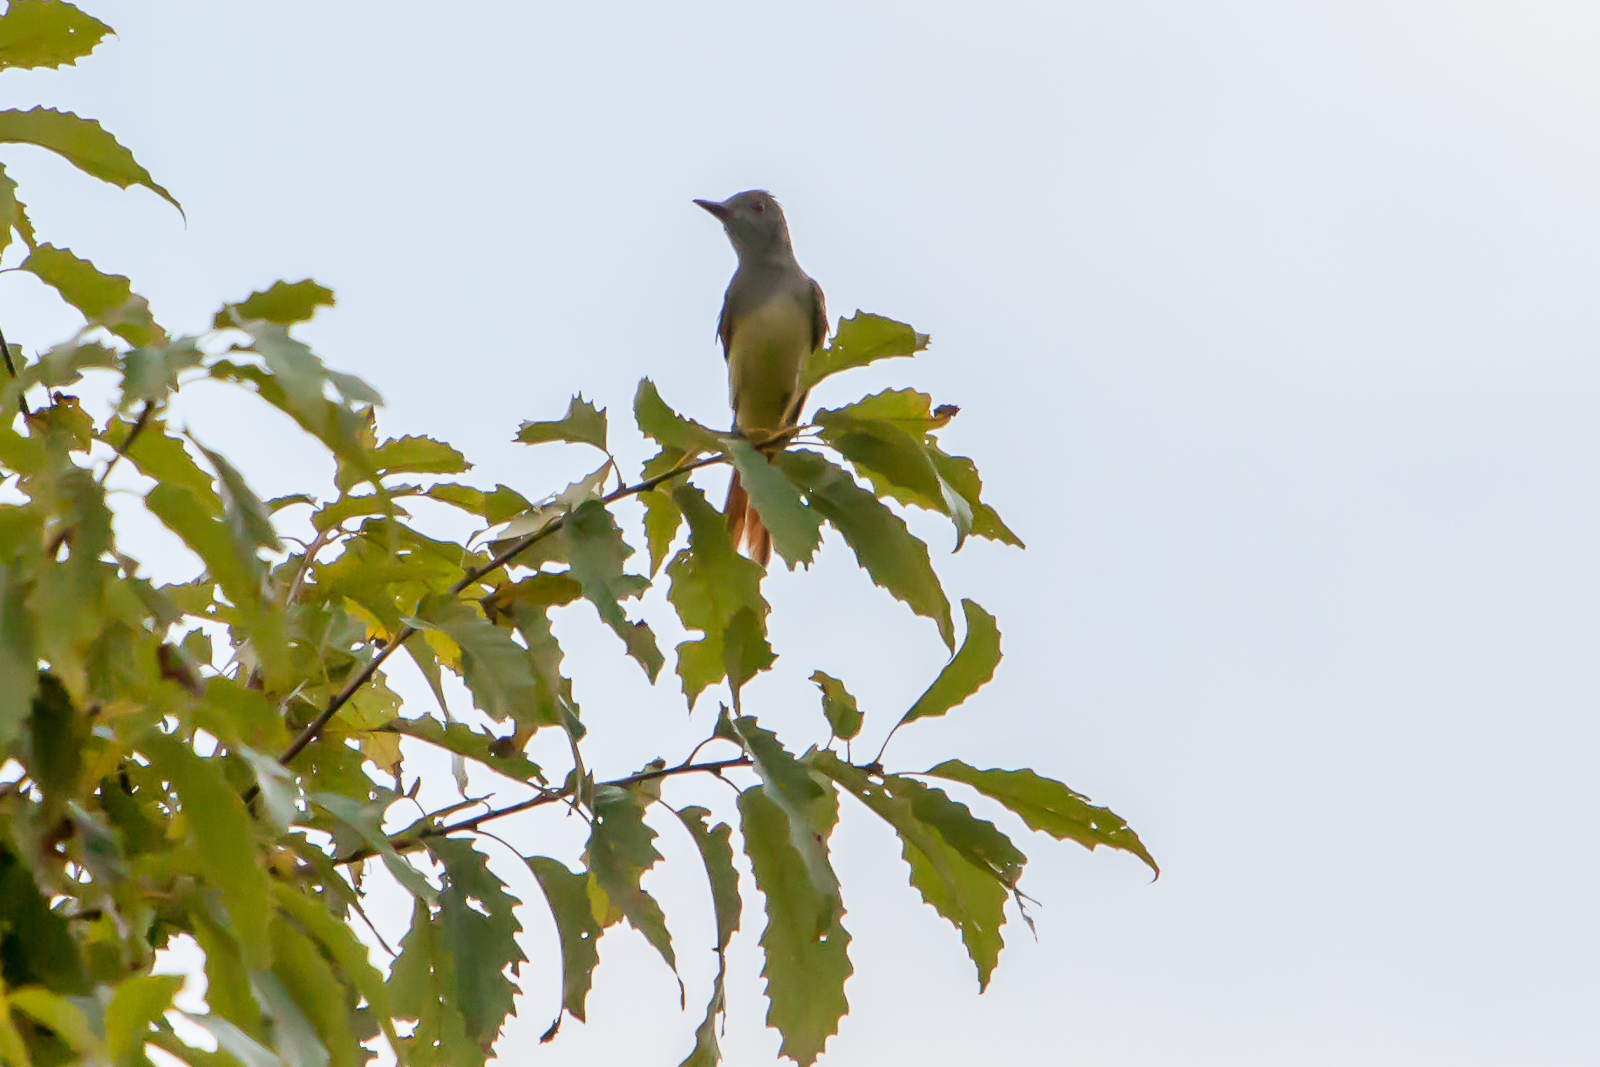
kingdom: Animalia
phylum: Chordata
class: Aves
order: Passeriformes
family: Tyrannidae
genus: Myiarchus
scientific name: Myiarchus crinitus
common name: Great crested flycatcher
